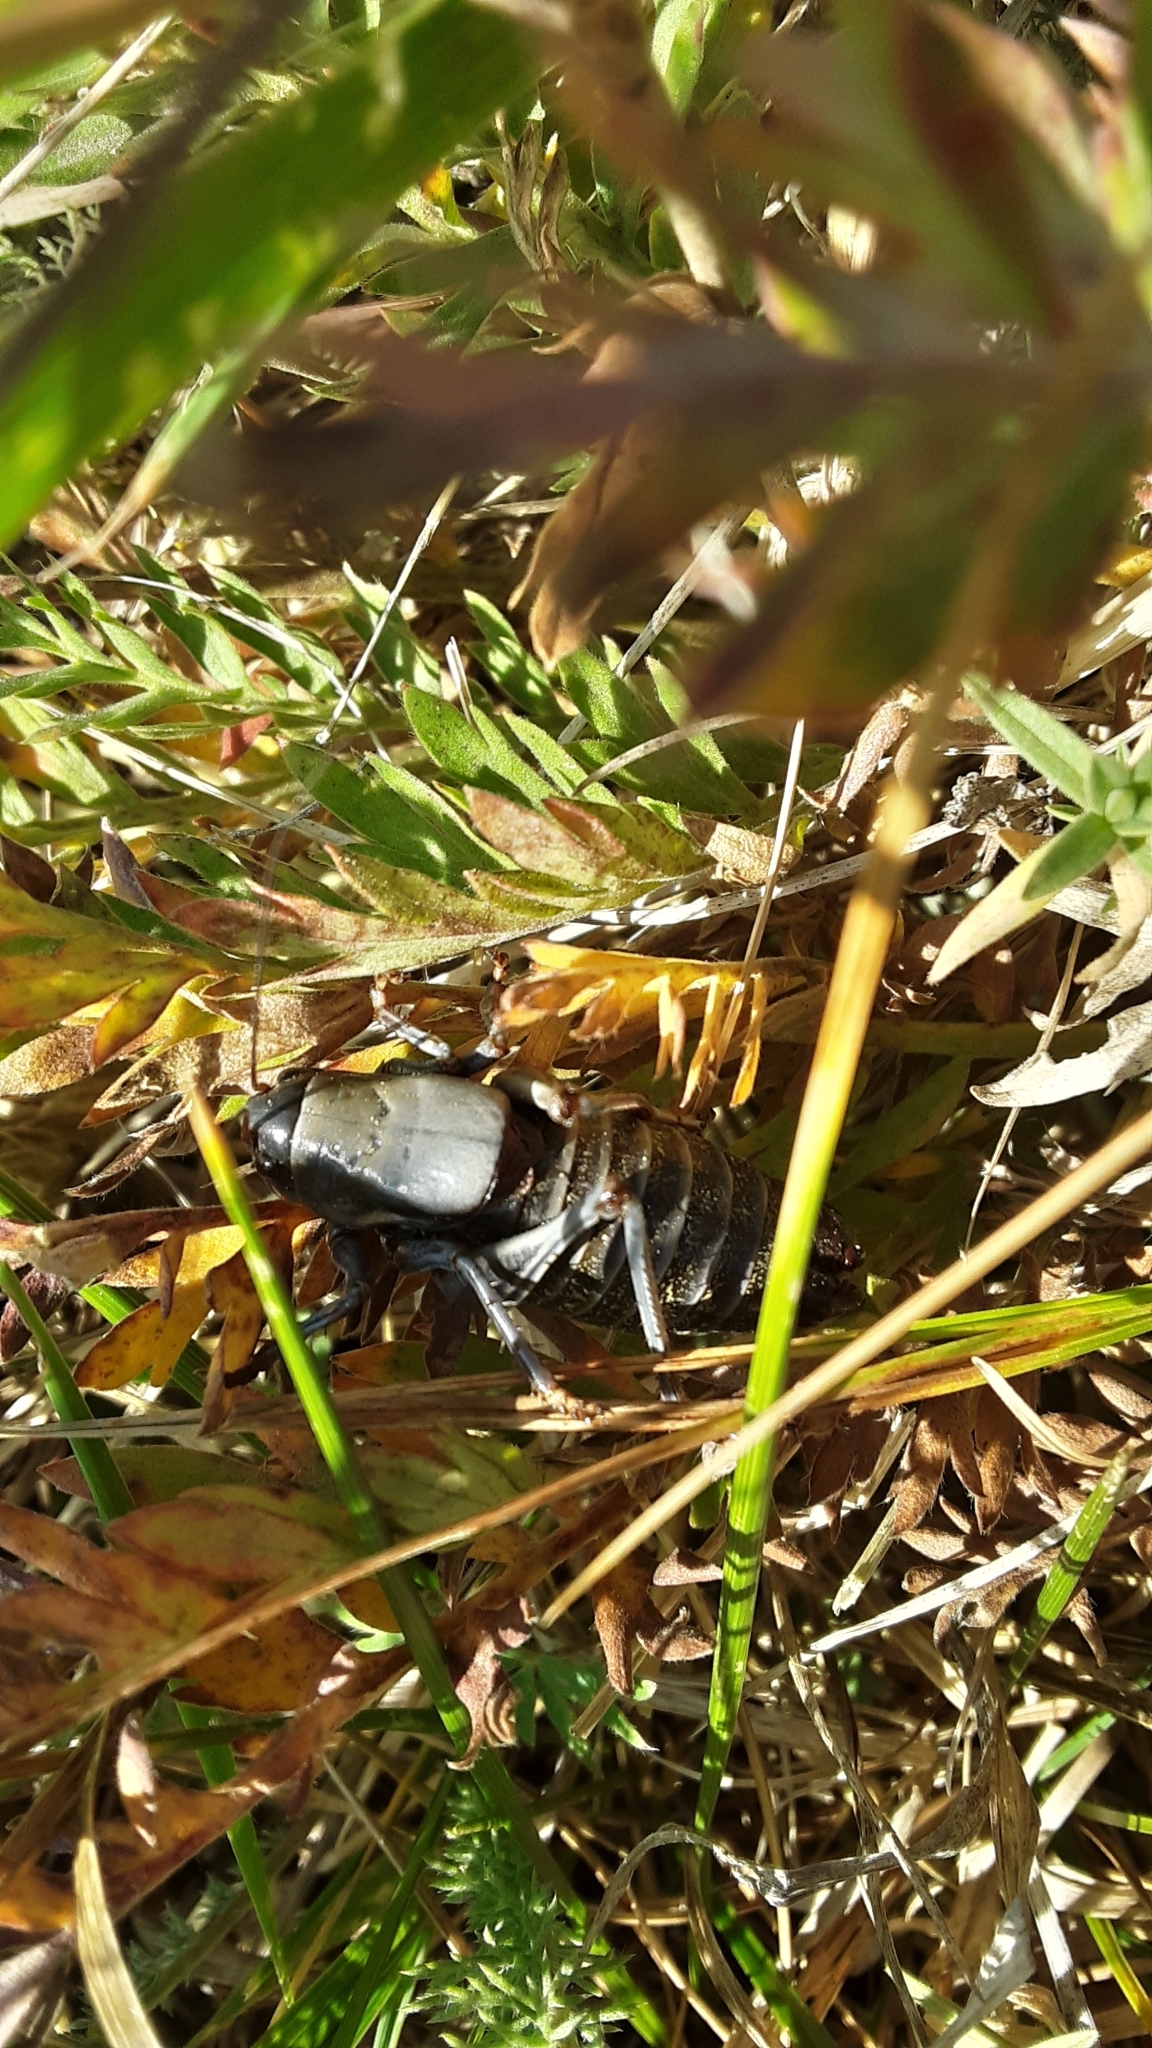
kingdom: Animalia
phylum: Arthropoda
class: Insecta
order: Orthoptera
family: Tettigoniidae
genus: Anabrus
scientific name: Anabrus simplex
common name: Mormon cricket
